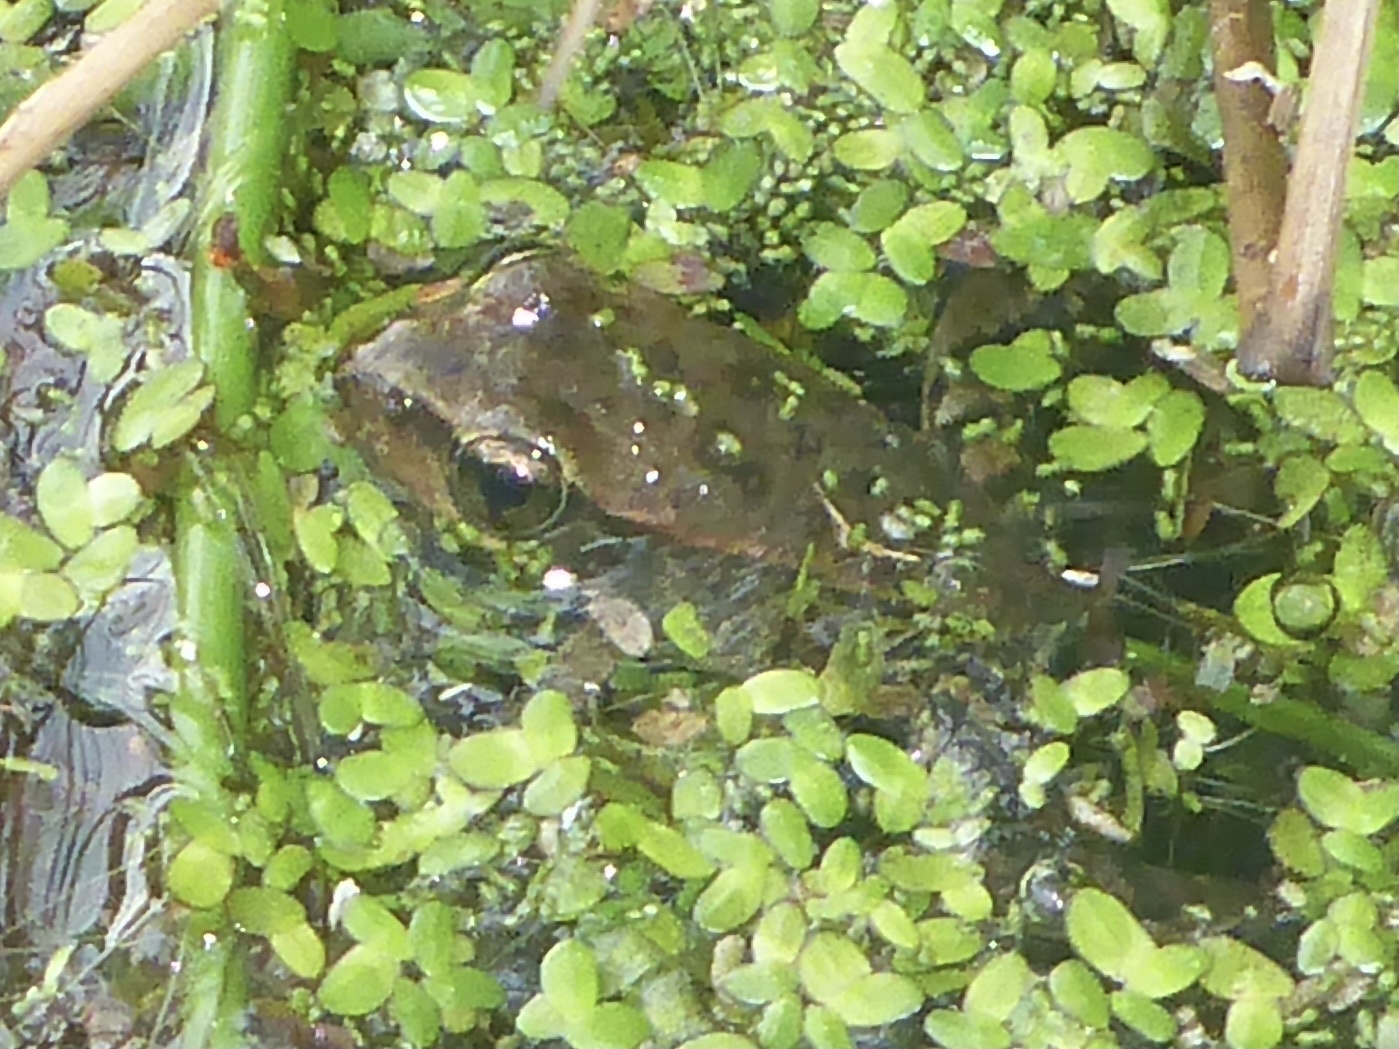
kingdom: Animalia
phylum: Chordata
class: Amphibia
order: Anura
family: Ranidae
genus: Rana
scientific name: Rana draytonii
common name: California red-legged frog
